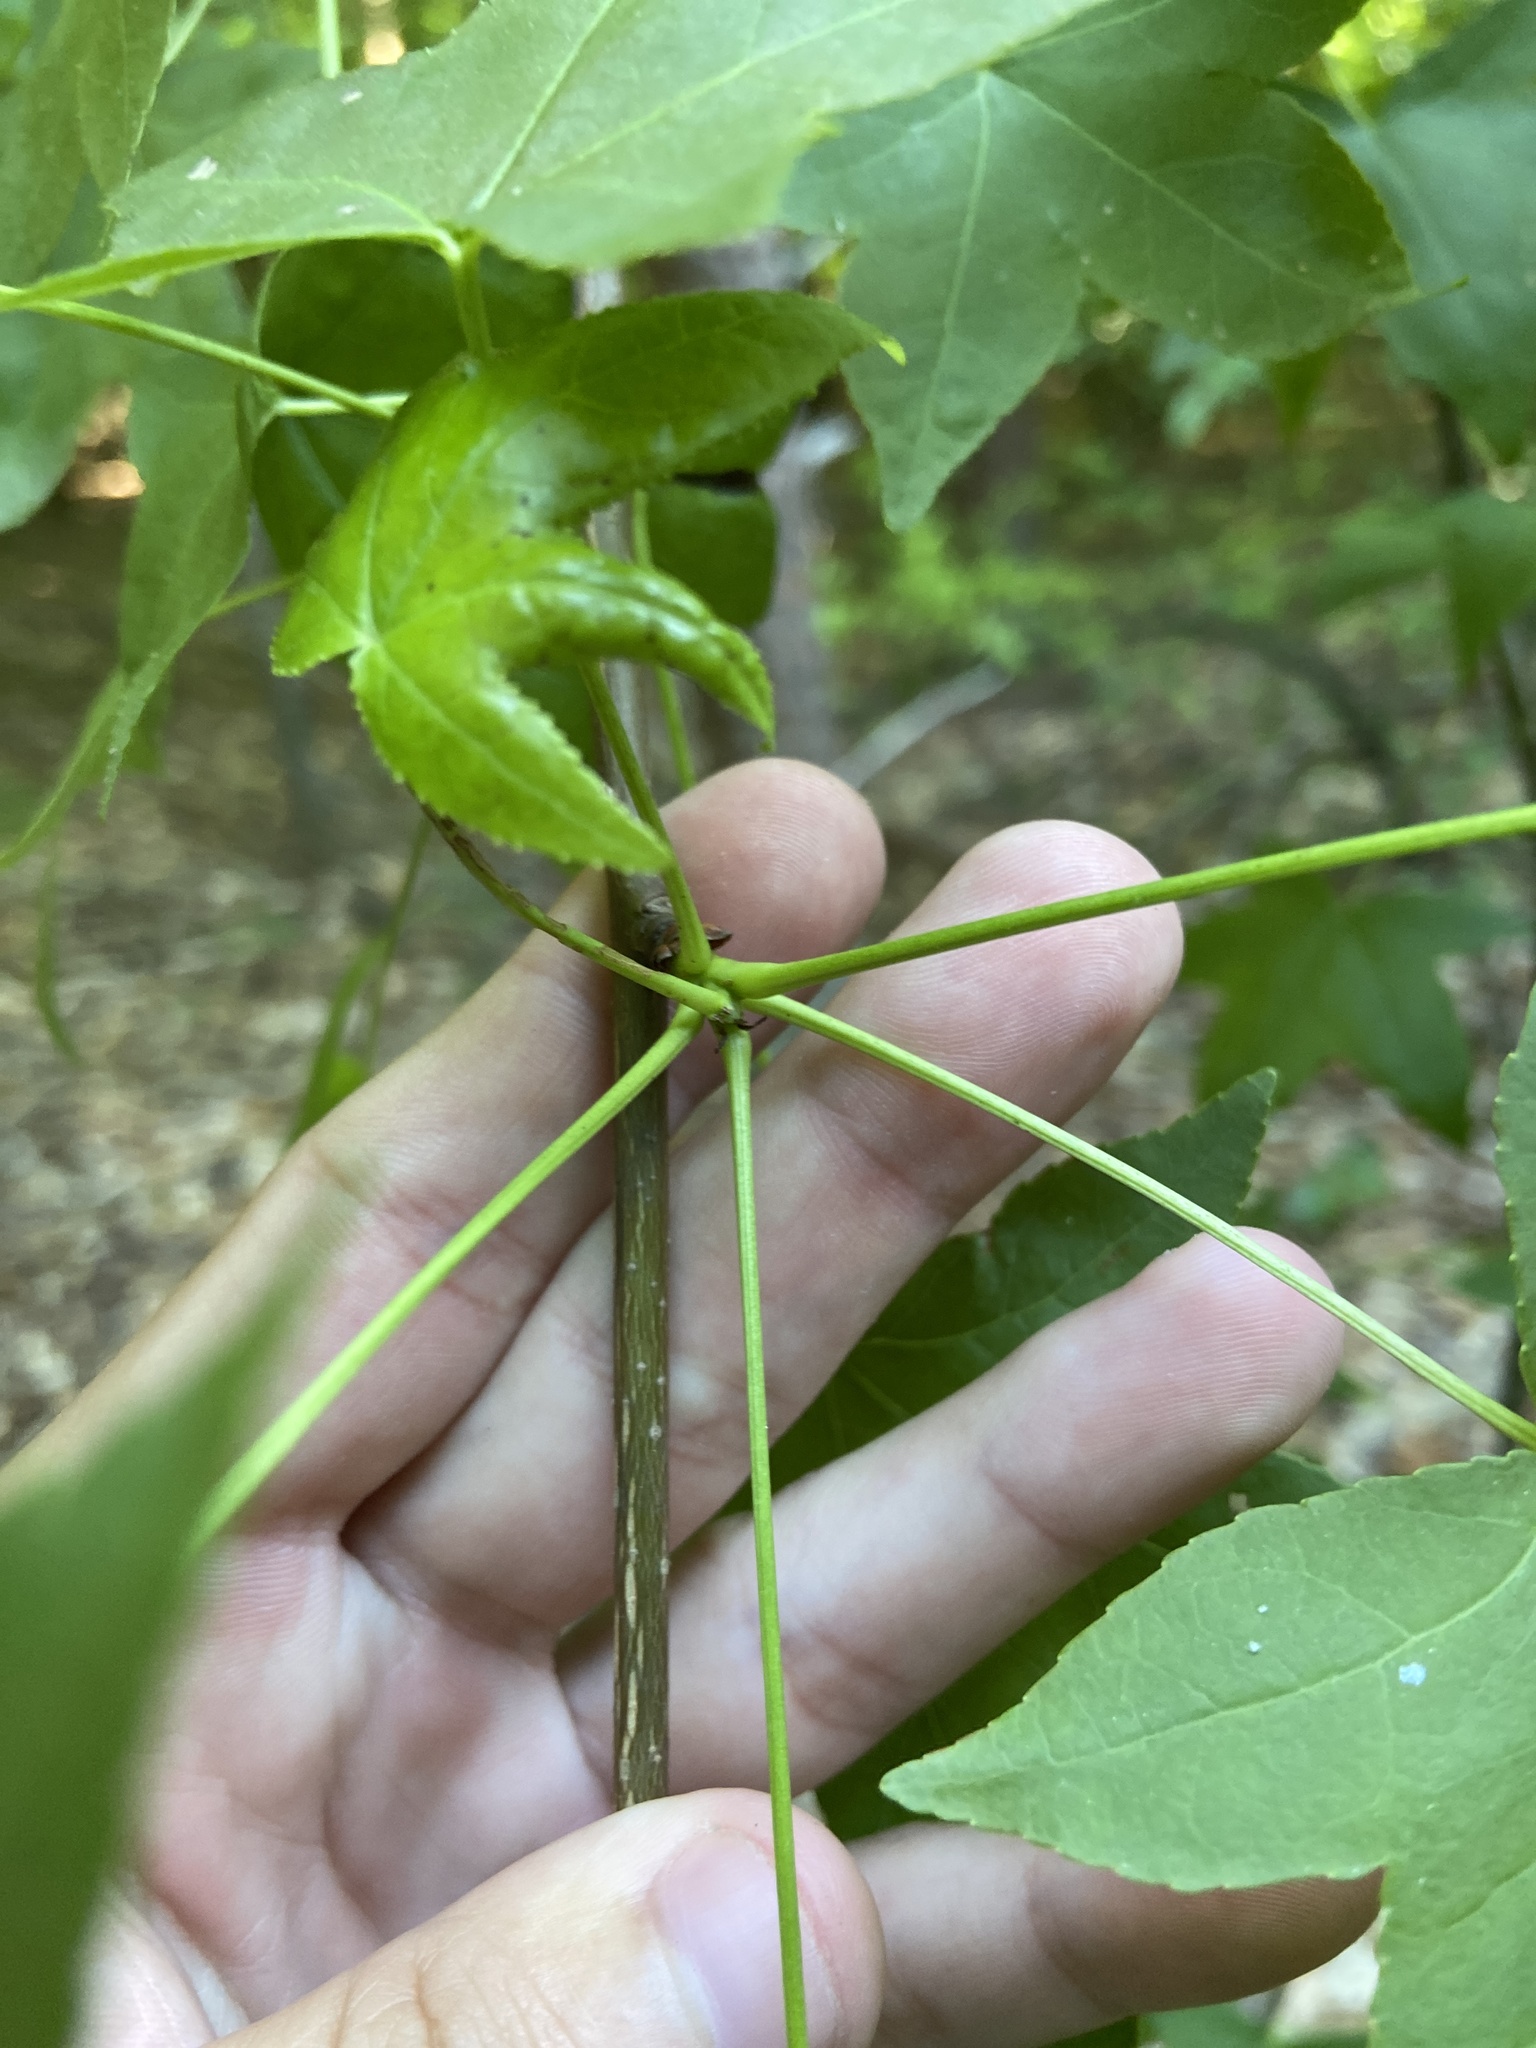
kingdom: Plantae
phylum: Tracheophyta
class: Magnoliopsida
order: Saxifragales
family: Altingiaceae
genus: Liquidambar
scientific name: Liquidambar styraciflua
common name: Sweet gum
